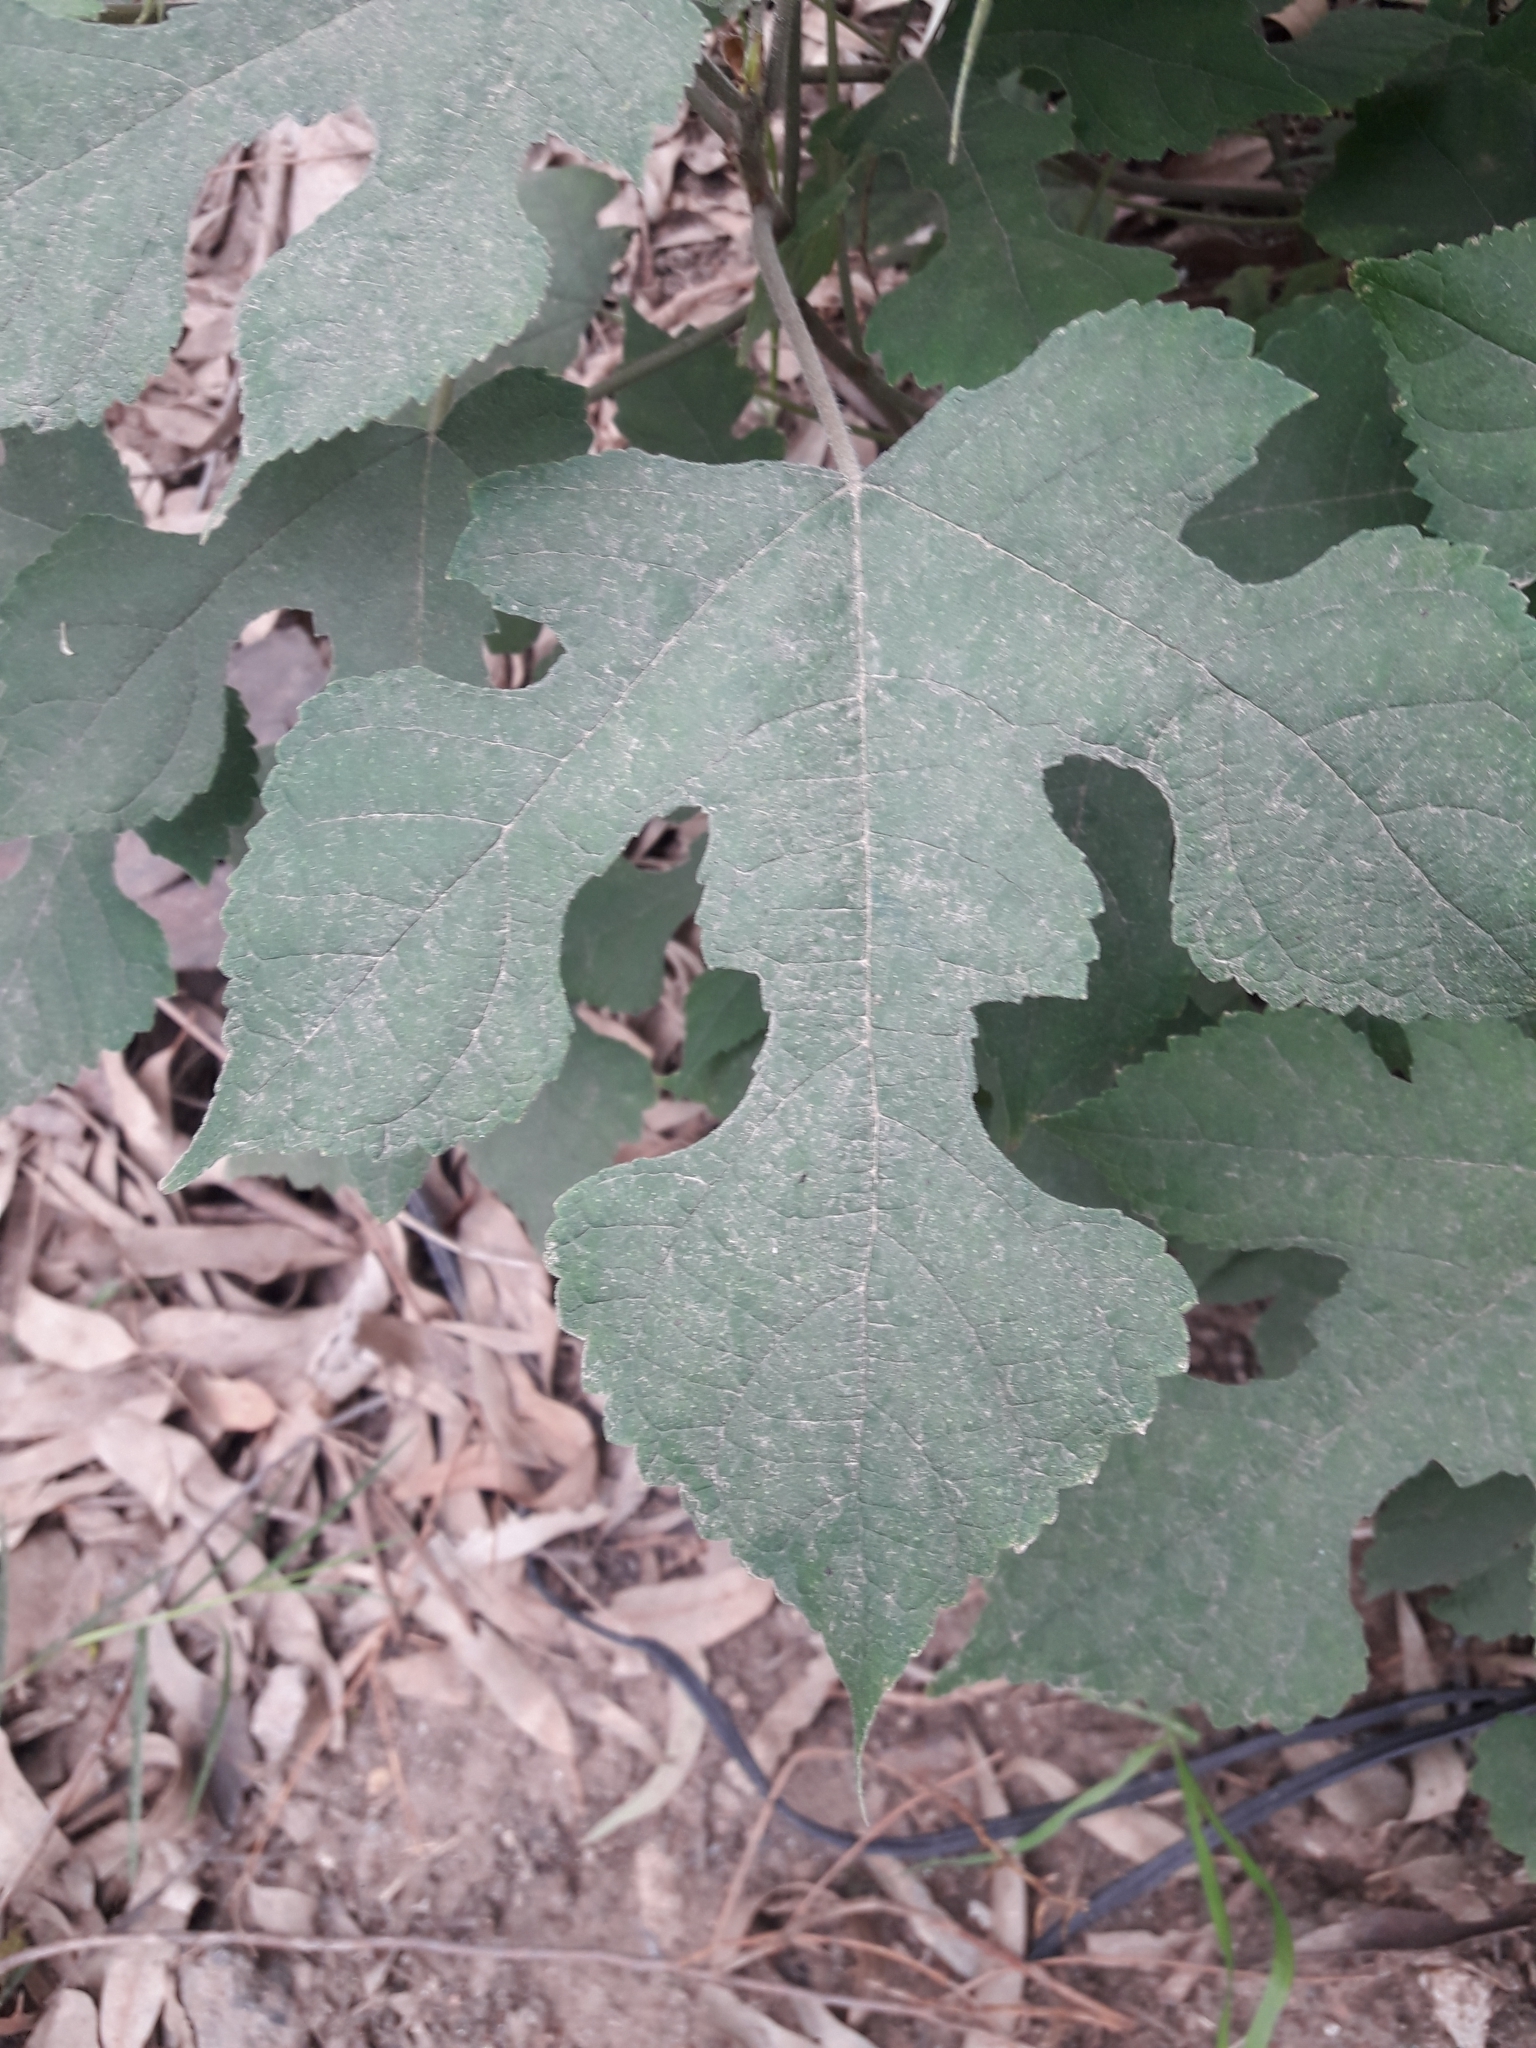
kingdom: Plantae
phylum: Tracheophyta
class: Magnoliopsida
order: Rosales
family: Moraceae
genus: Broussonetia
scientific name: Broussonetia papyrifera
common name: Paper mulberry
